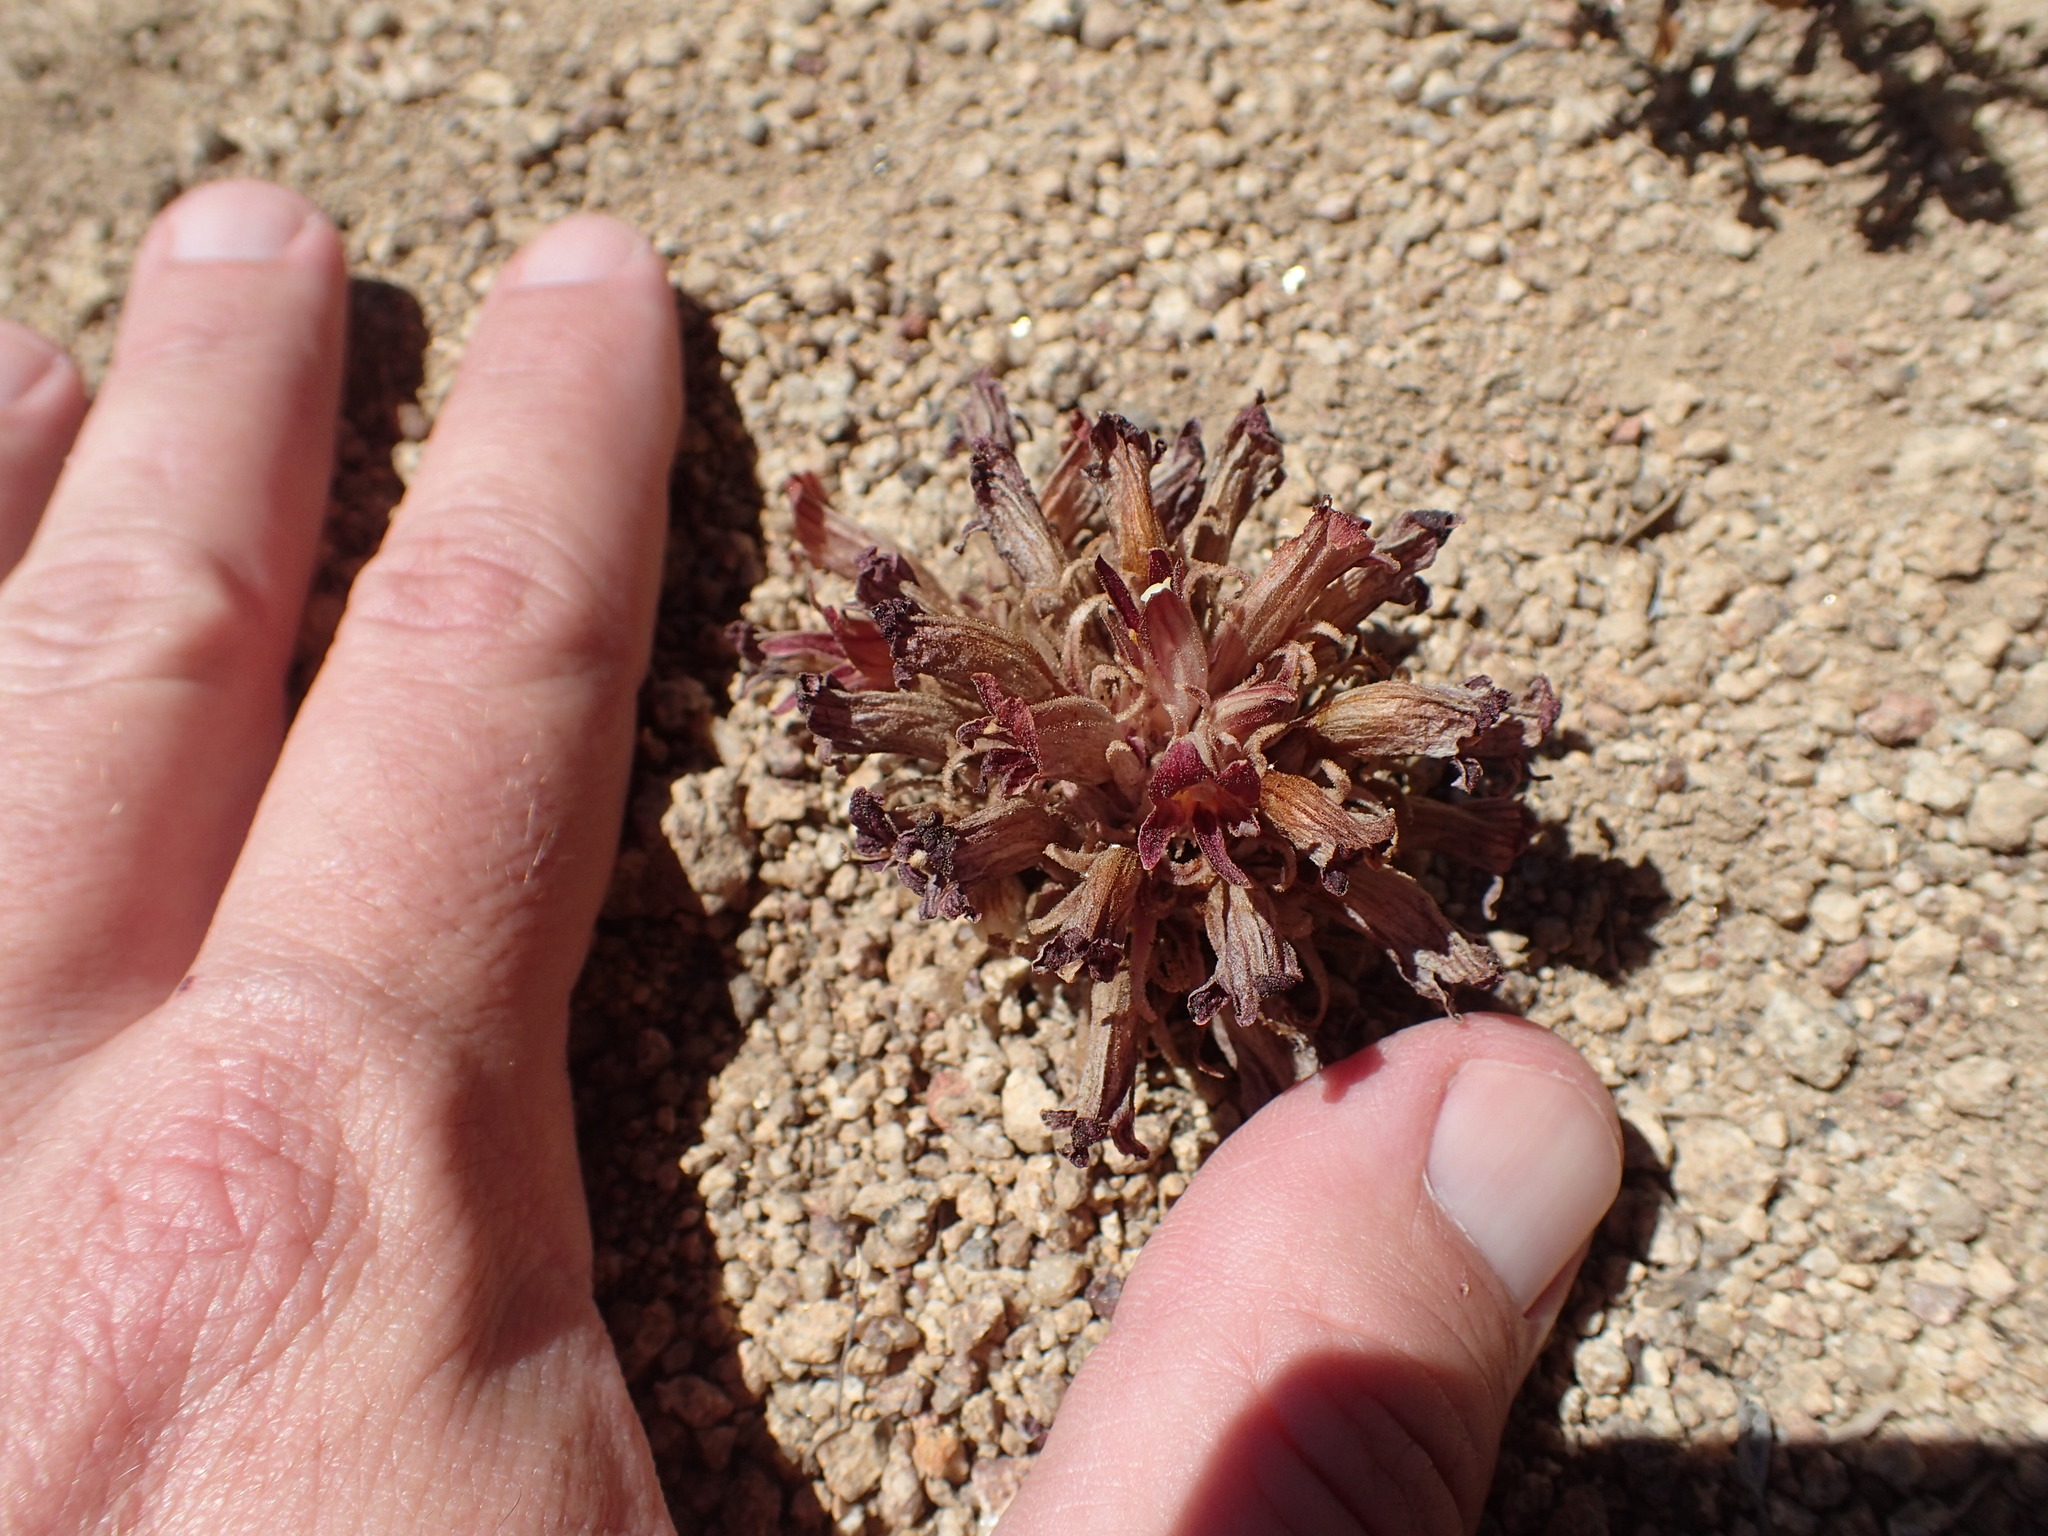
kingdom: Plantae
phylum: Tracheophyta
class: Magnoliopsida
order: Lamiales
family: Orobanchaceae
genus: Aphyllon
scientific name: Aphyllon corymbosum
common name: Flat-top broomrape
